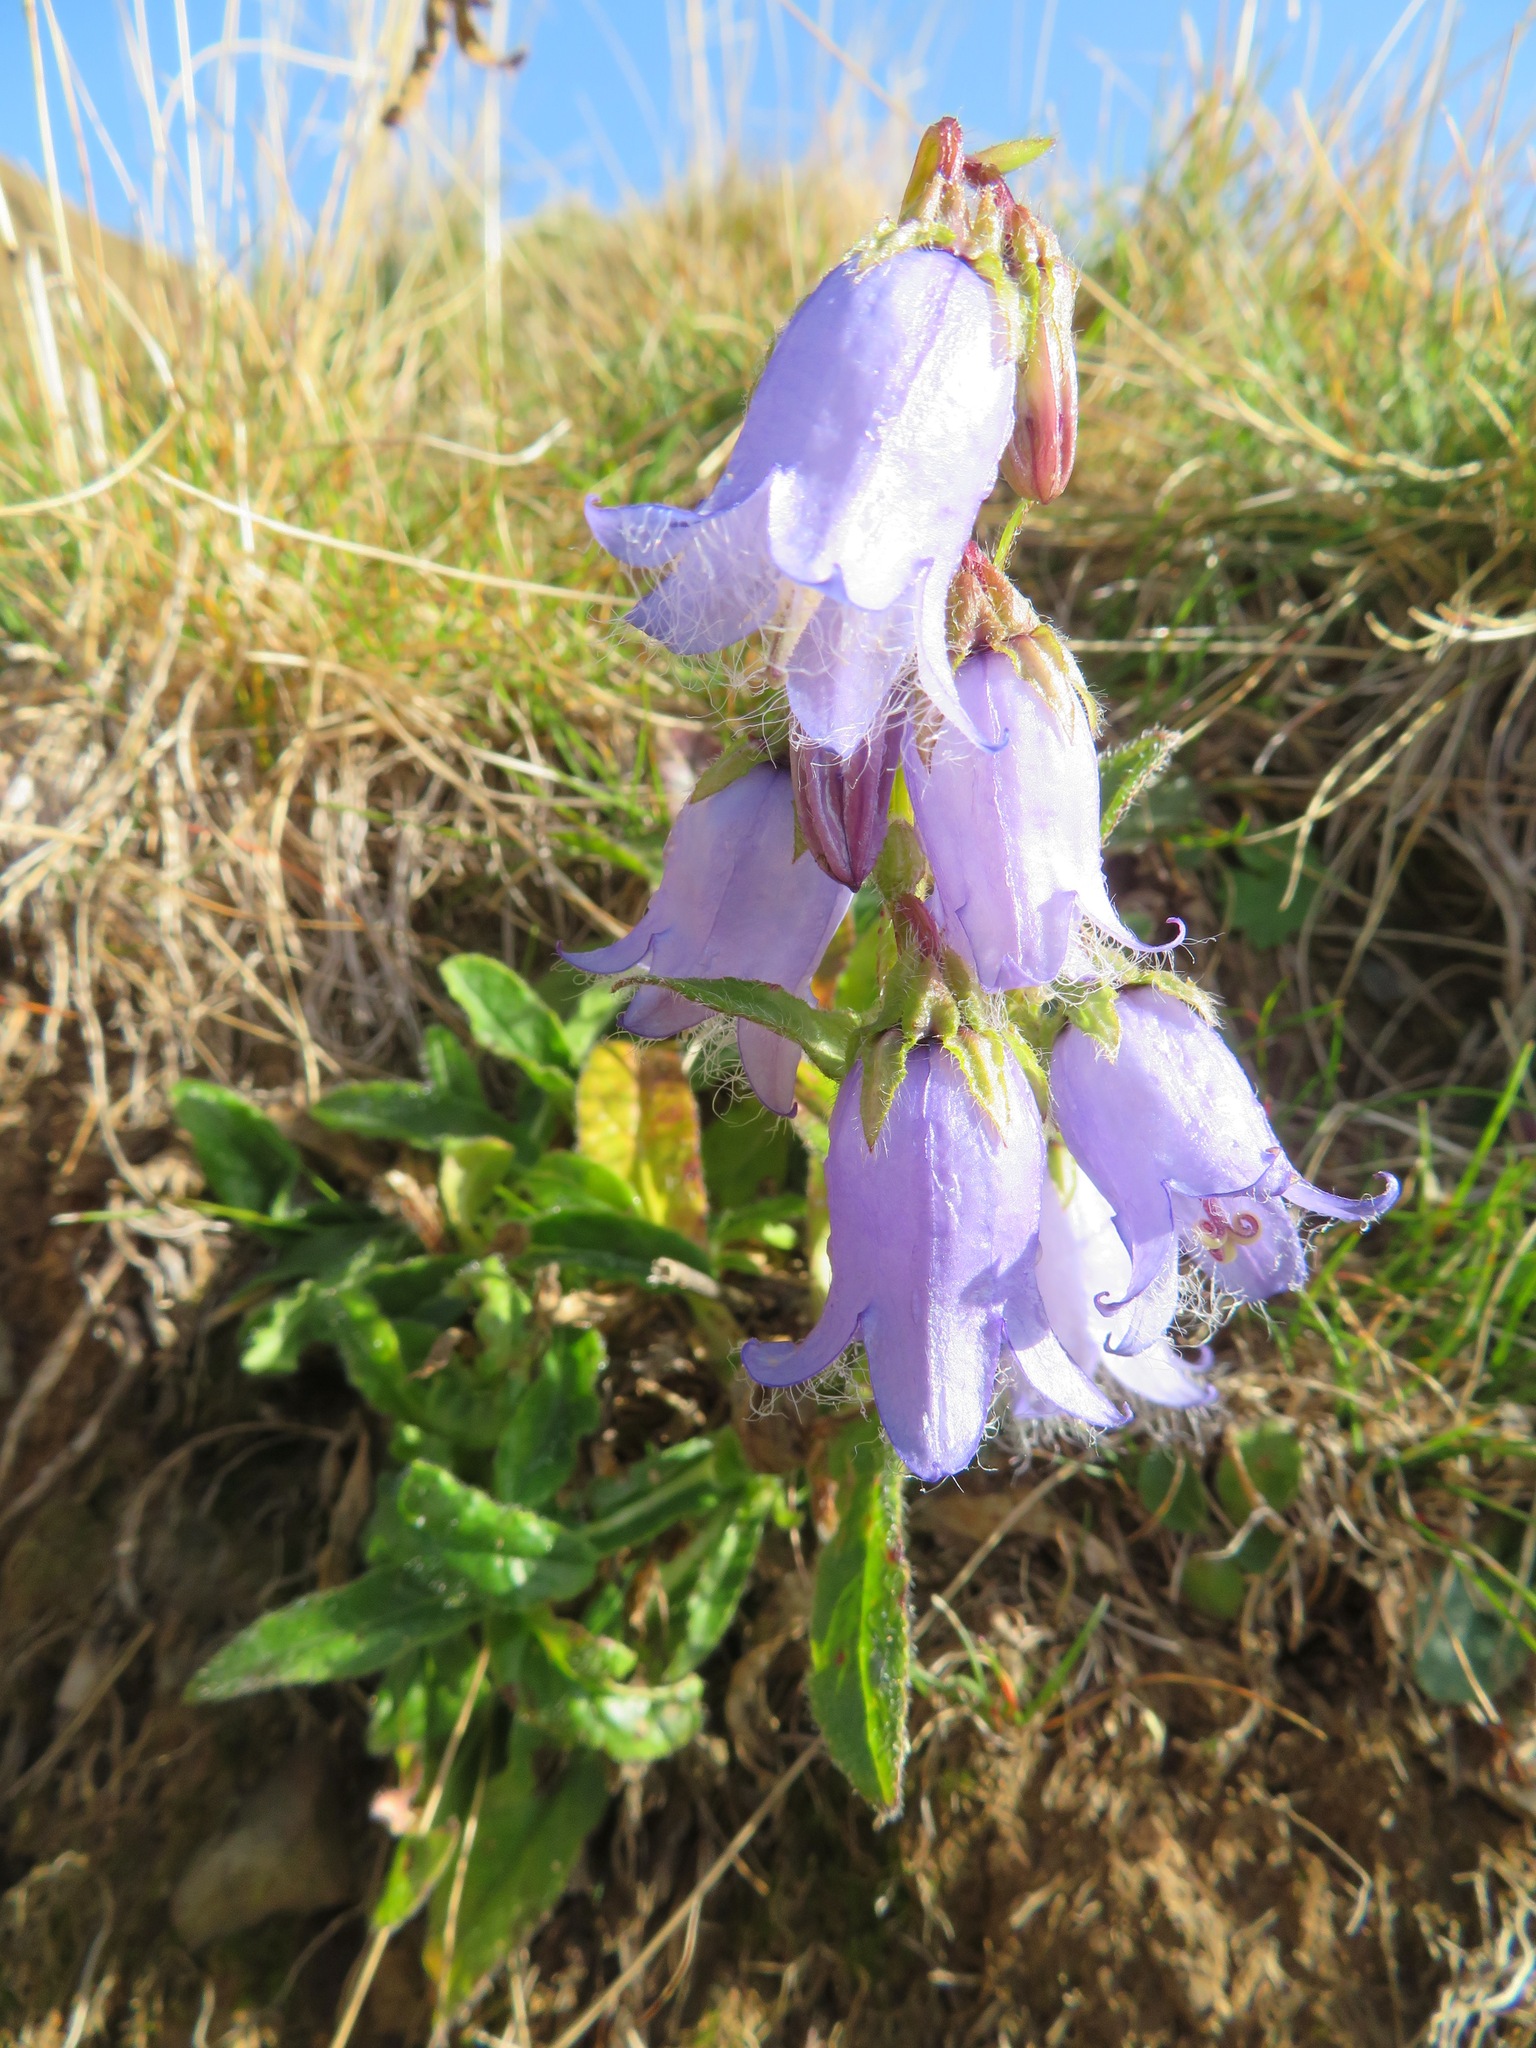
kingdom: Plantae
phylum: Tracheophyta
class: Magnoliopsida
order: Asterales
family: Campanulaceae
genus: Campanula
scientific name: Campanula barbata
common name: Bearded bellflower
